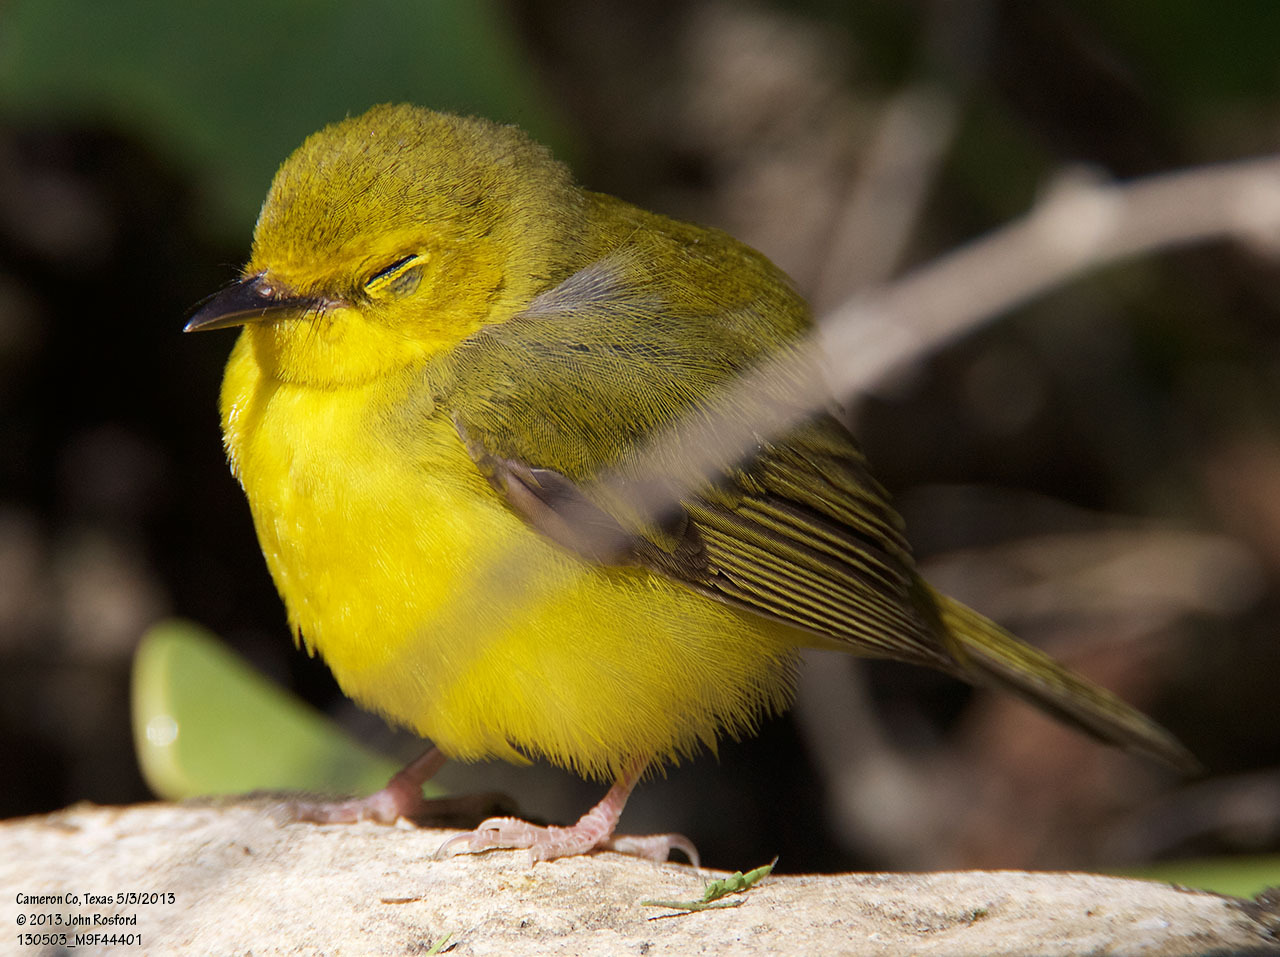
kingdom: Animalia
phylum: Chordata
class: Aves
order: Passeriformes
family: Parulidae
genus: Setophaga
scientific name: Setophaga citrina
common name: Hooded warbler
